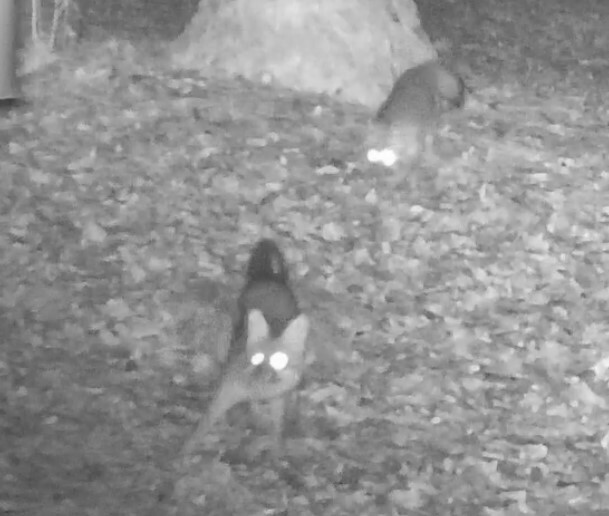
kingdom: Animalia
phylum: Chordata
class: Mammalia
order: Carnivora
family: Canidae
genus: Urocyon
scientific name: Urocyon cinereoargenteus
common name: Gray fox
